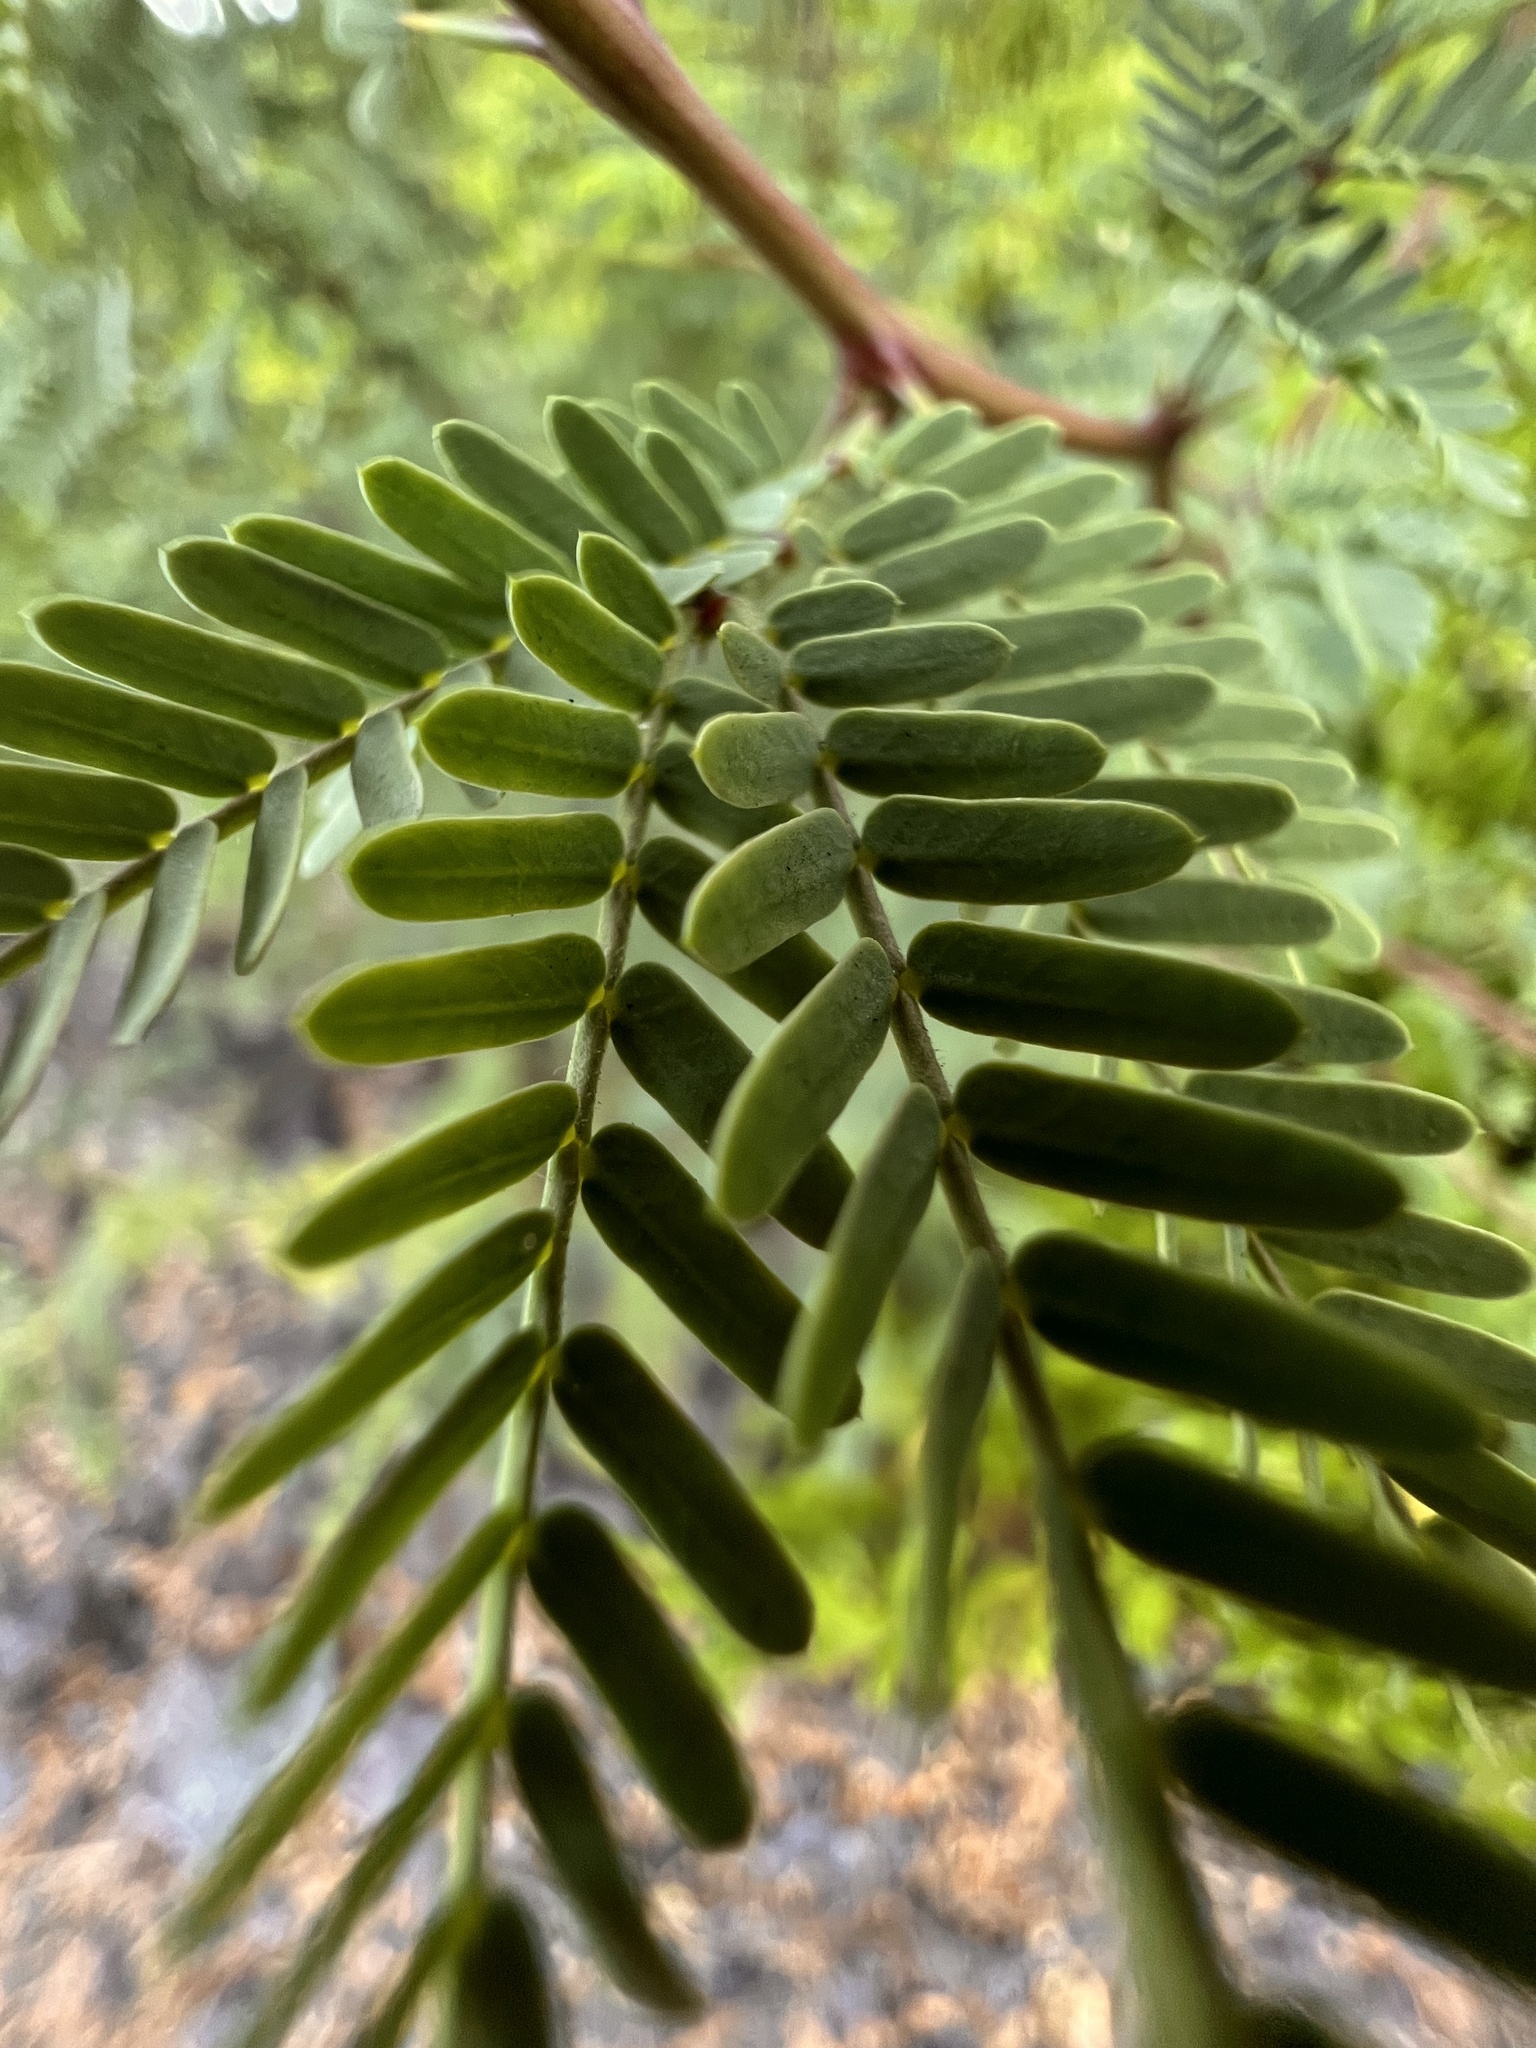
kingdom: Plantae
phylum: Tracheophyta
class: Magnoliopsida
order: Fabales
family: Fabaceae
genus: Prosopis
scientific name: Prosopis pallida
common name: Mesquite
